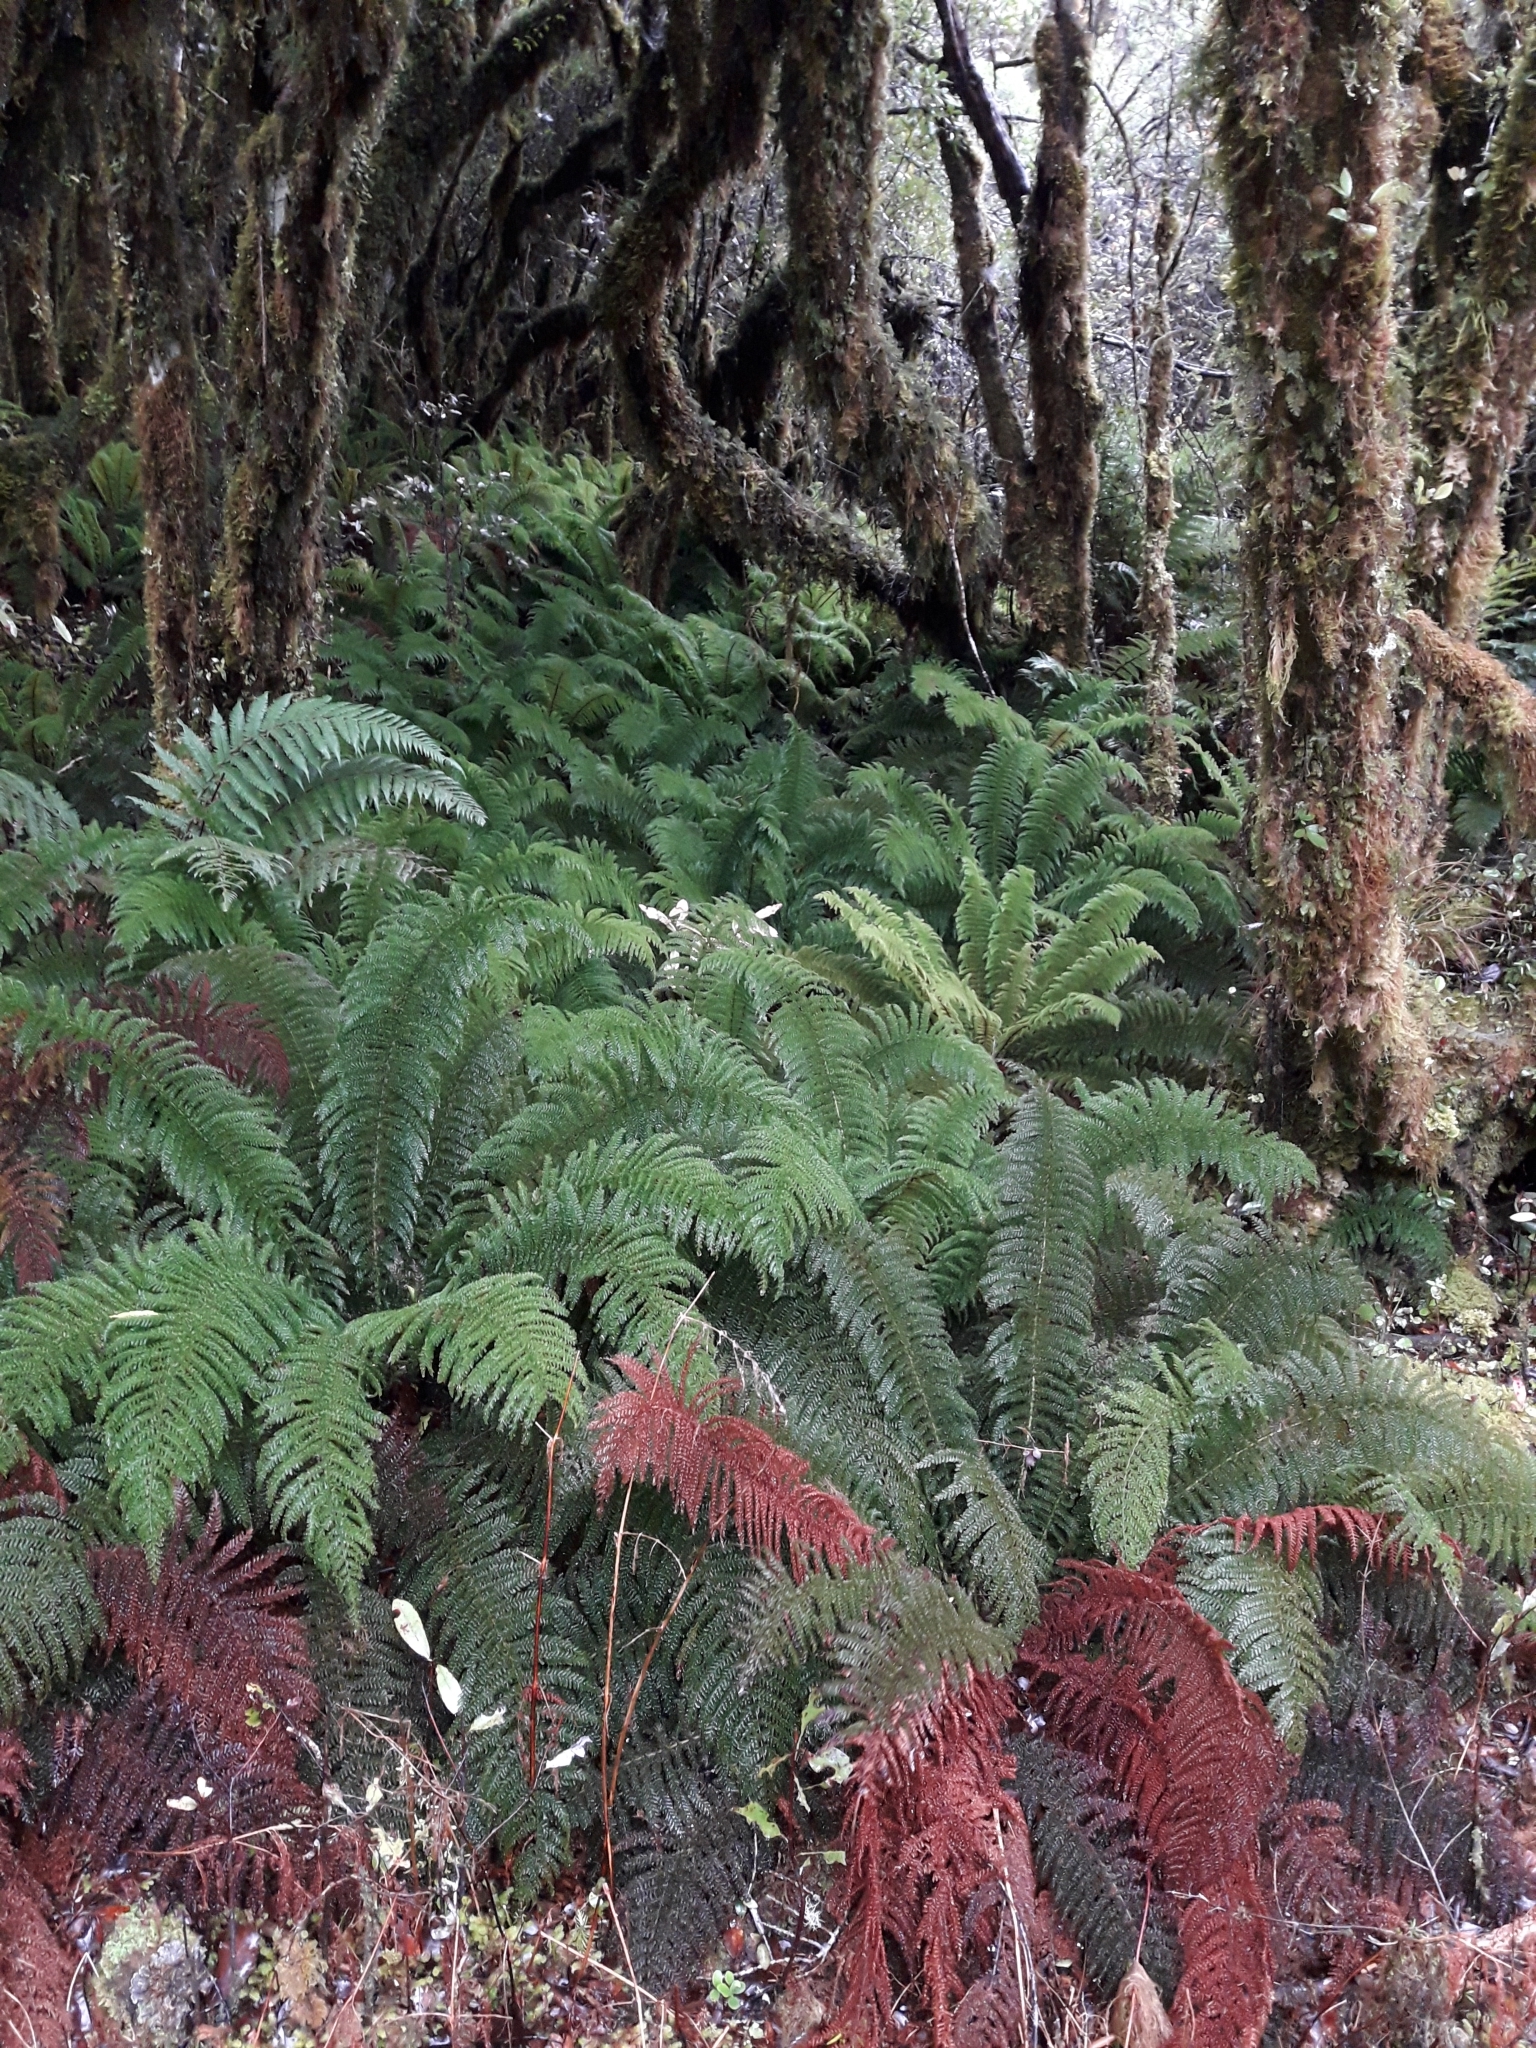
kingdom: Plantae
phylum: Tracheophyta
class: Polypodiopsida
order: Osmundales
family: Osmundaceae
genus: Leptopteris
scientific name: Leptopteris superba
